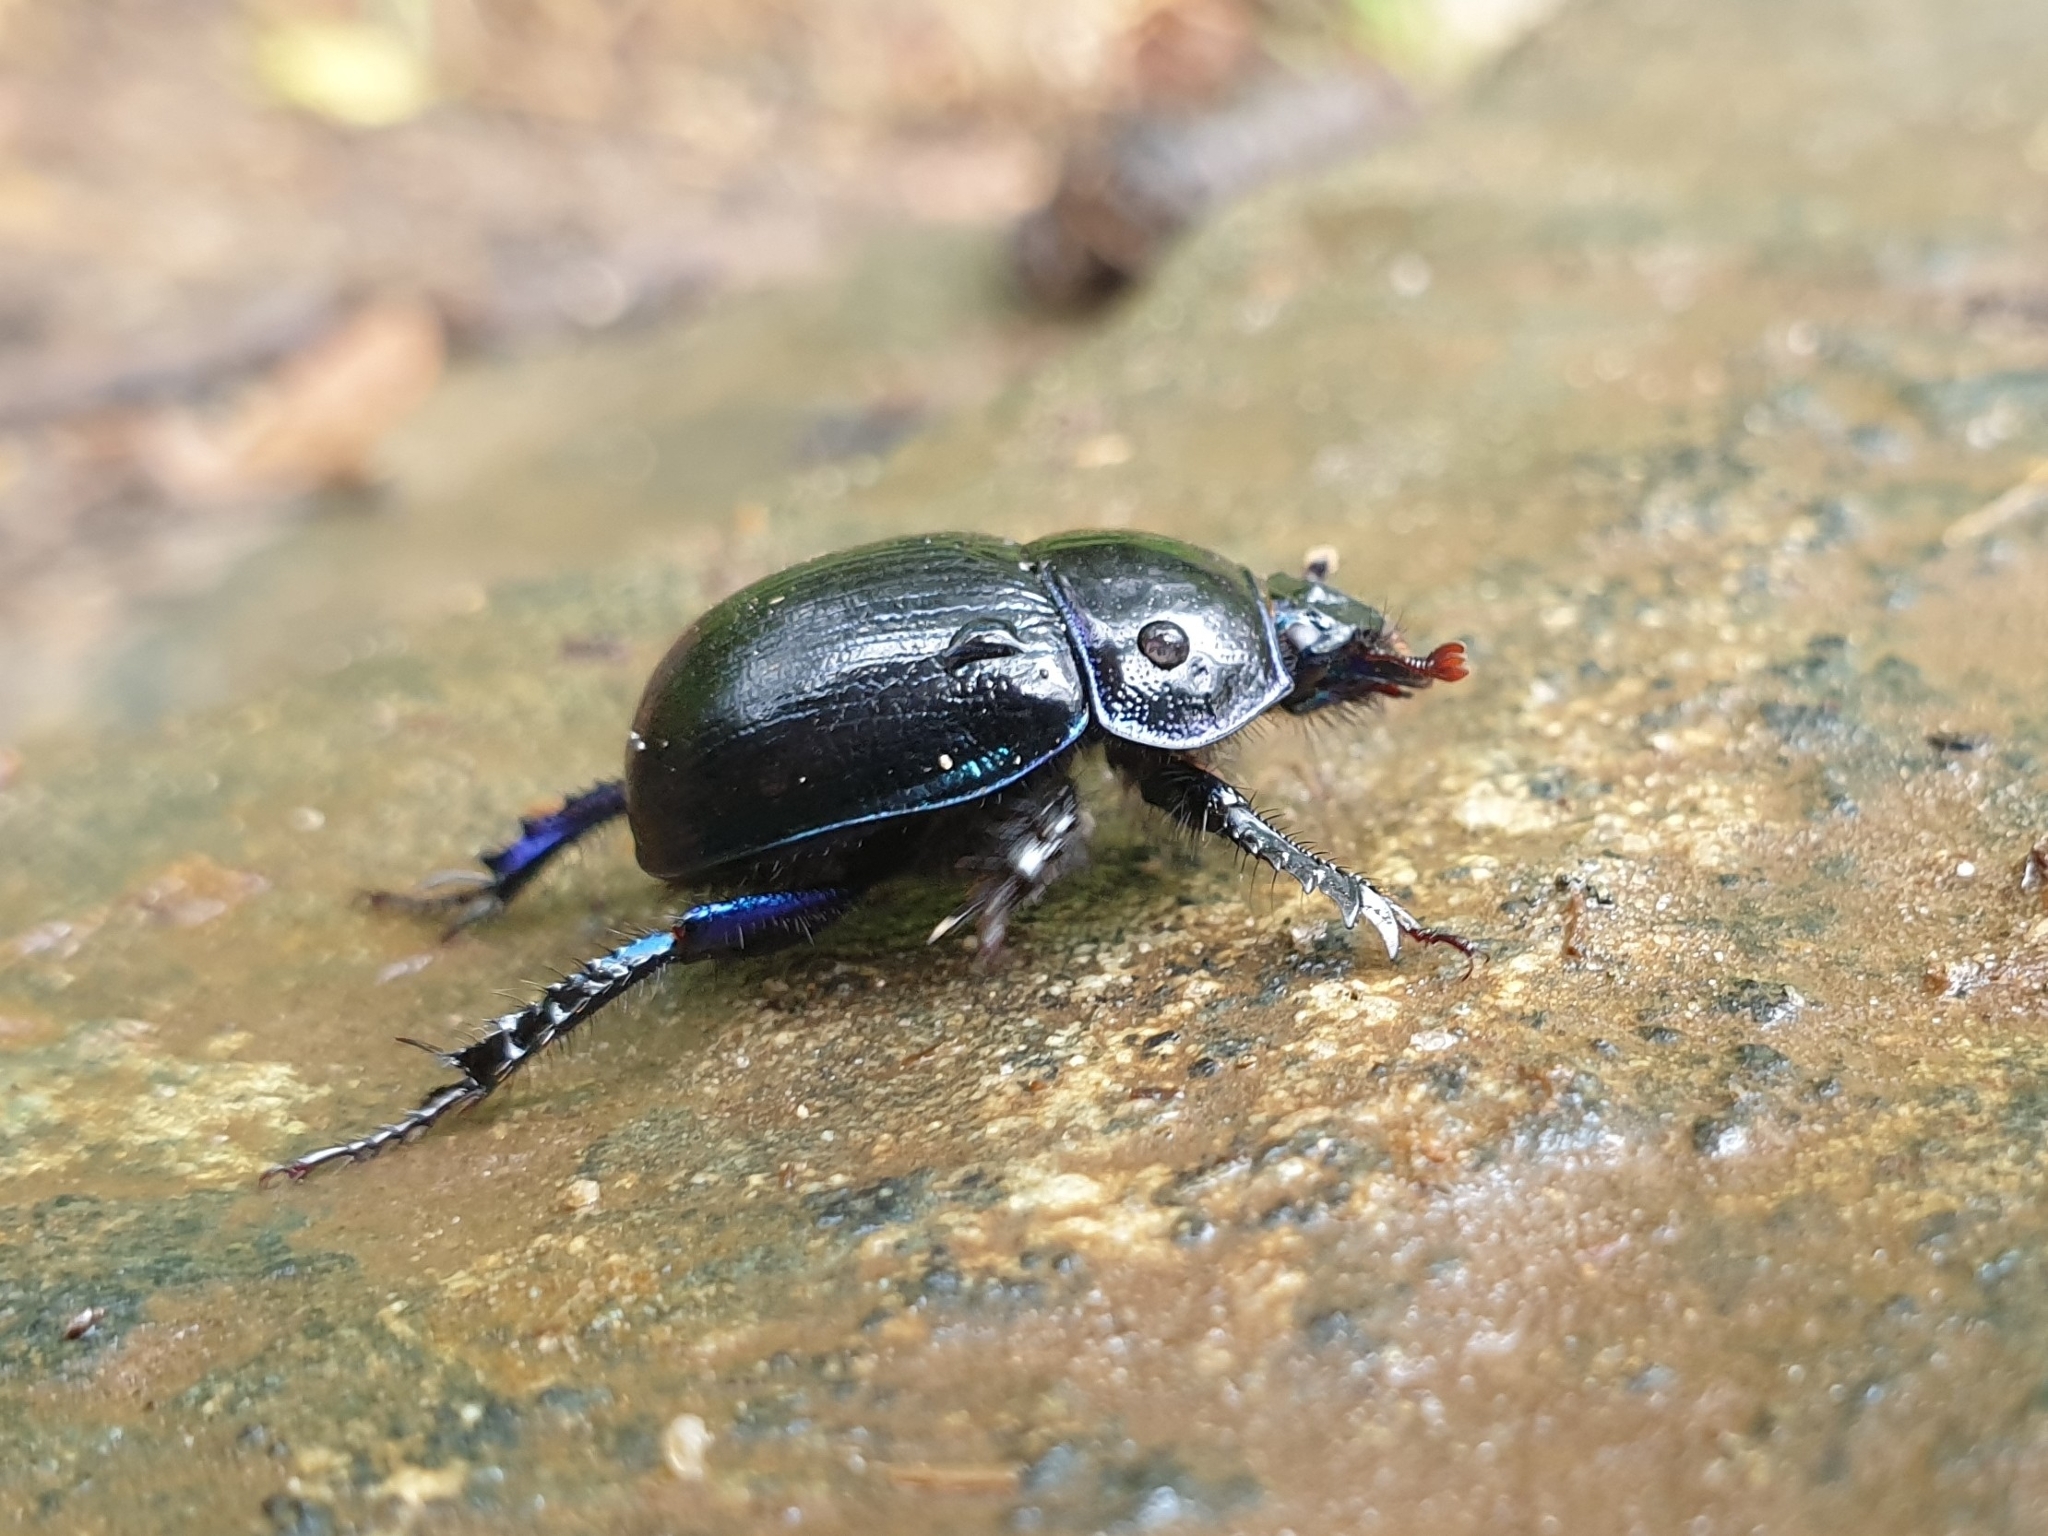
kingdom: Animalia
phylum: Arthropoda
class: Insecta
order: Coleoptera
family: Geotrupidae
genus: Anoplotrupes
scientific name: Anoplotrupes stercorosus
